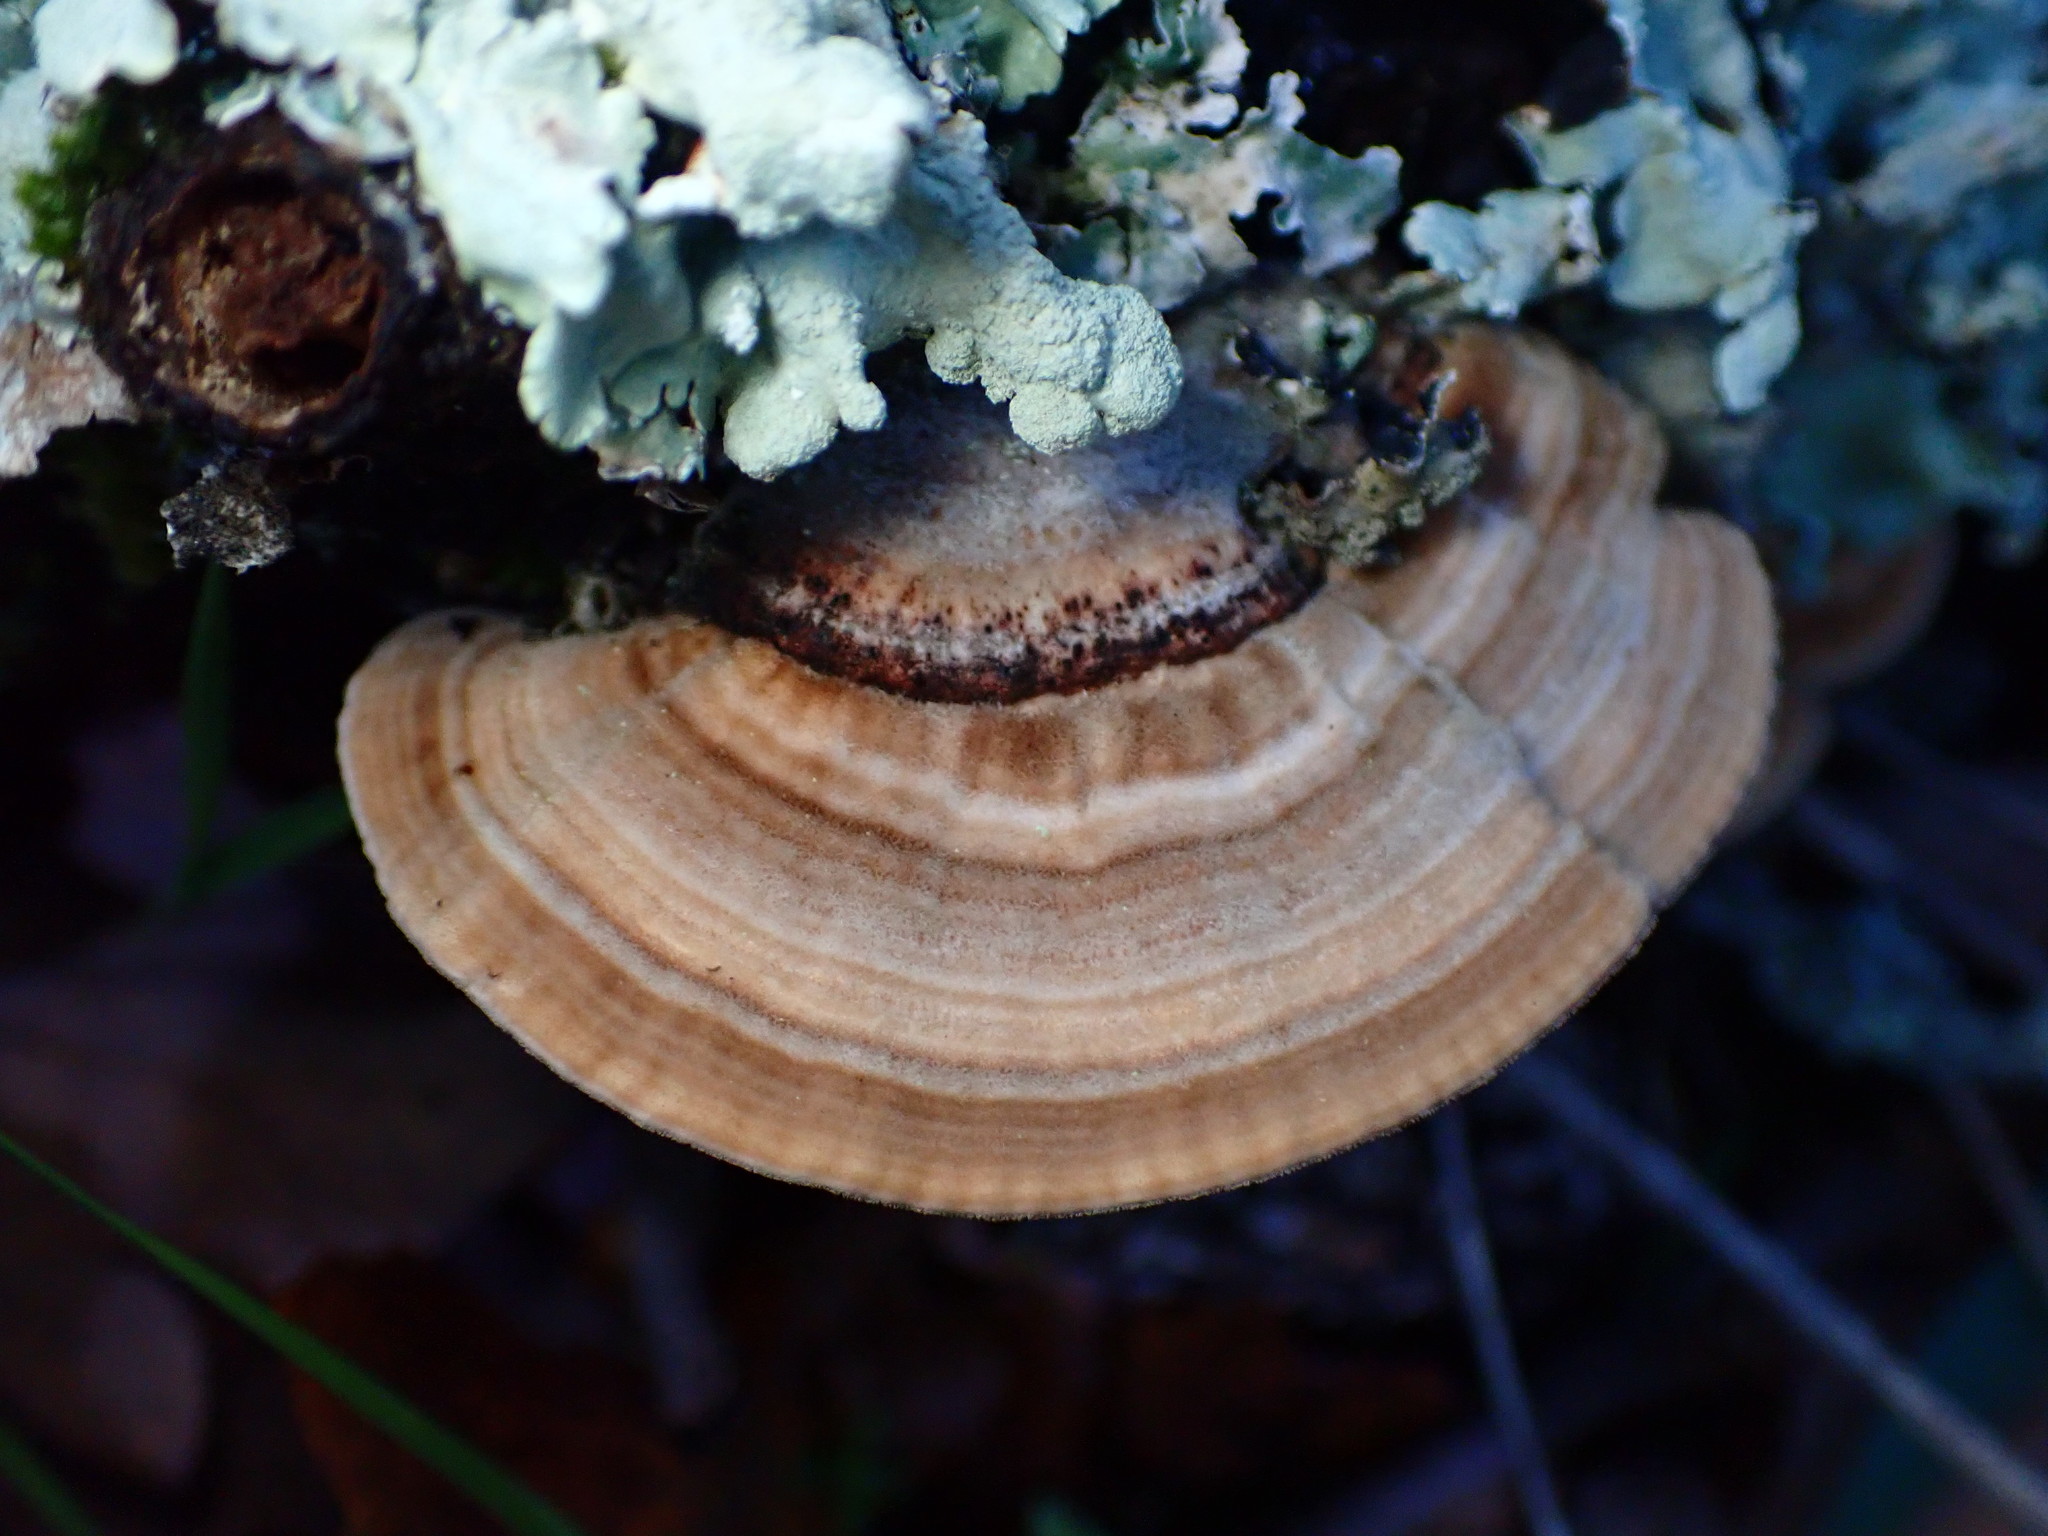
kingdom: Fungi
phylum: Basidiomycota
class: Agaricomycetes
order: Polyporales
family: Polyporaceae
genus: Lenzites
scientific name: Lenzites betulinus
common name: Birch mazegill
